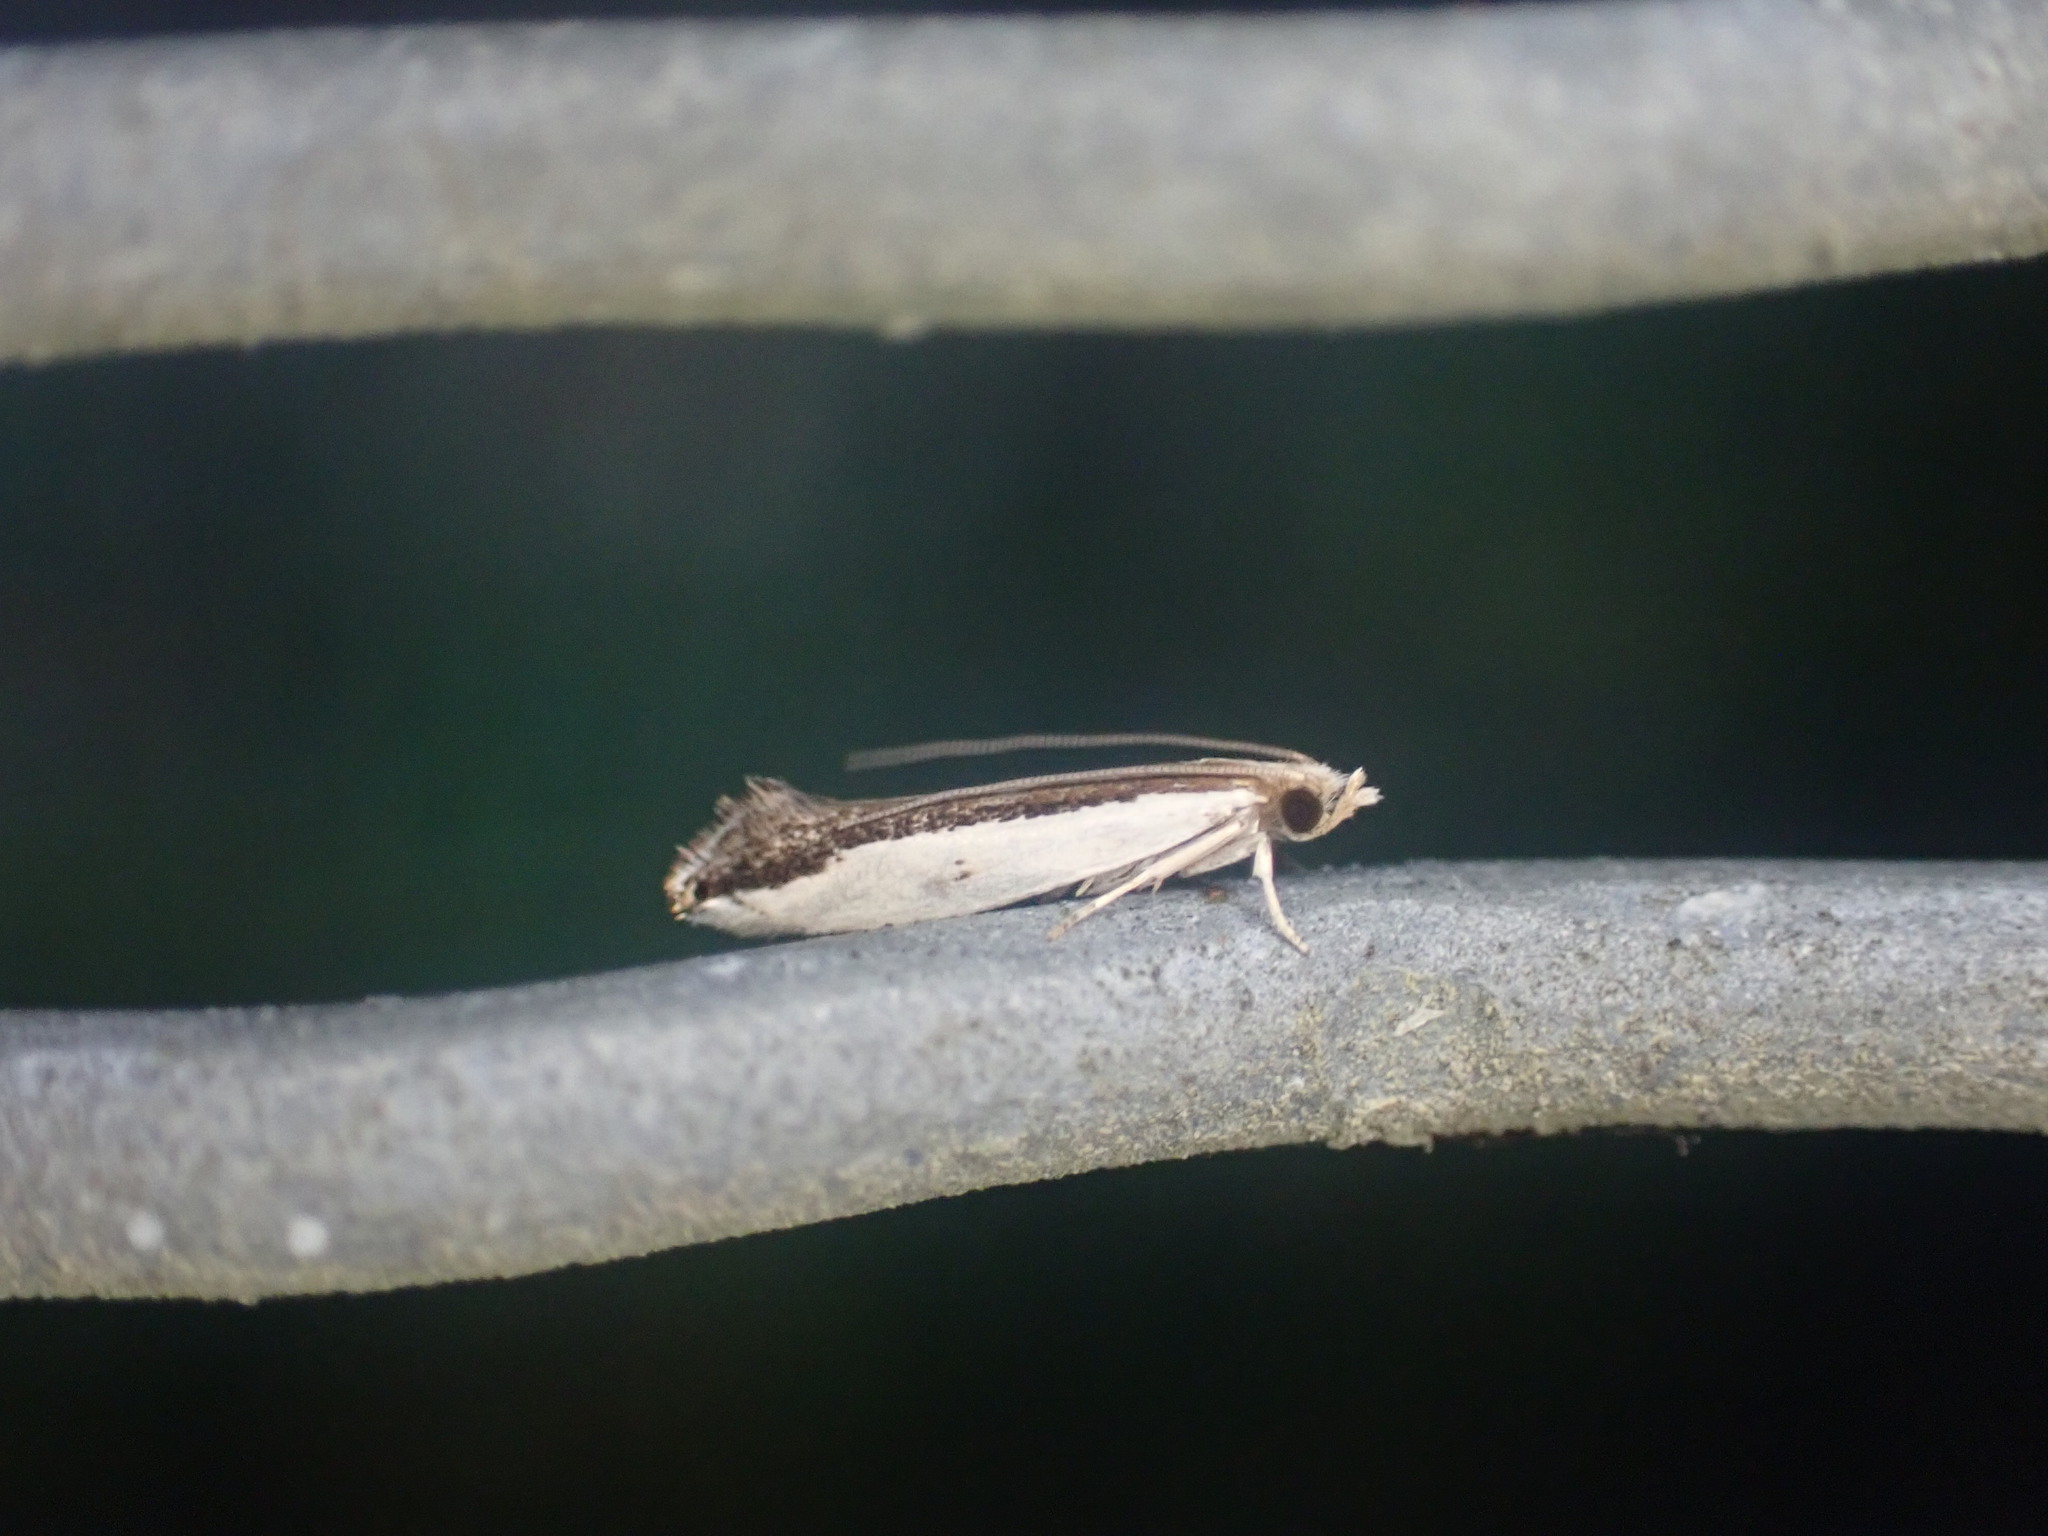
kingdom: Animalia
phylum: Arthropoda
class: Insecta
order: Lepidoptera
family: Tineidae
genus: Erechthias
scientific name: Erechthias chionodira
